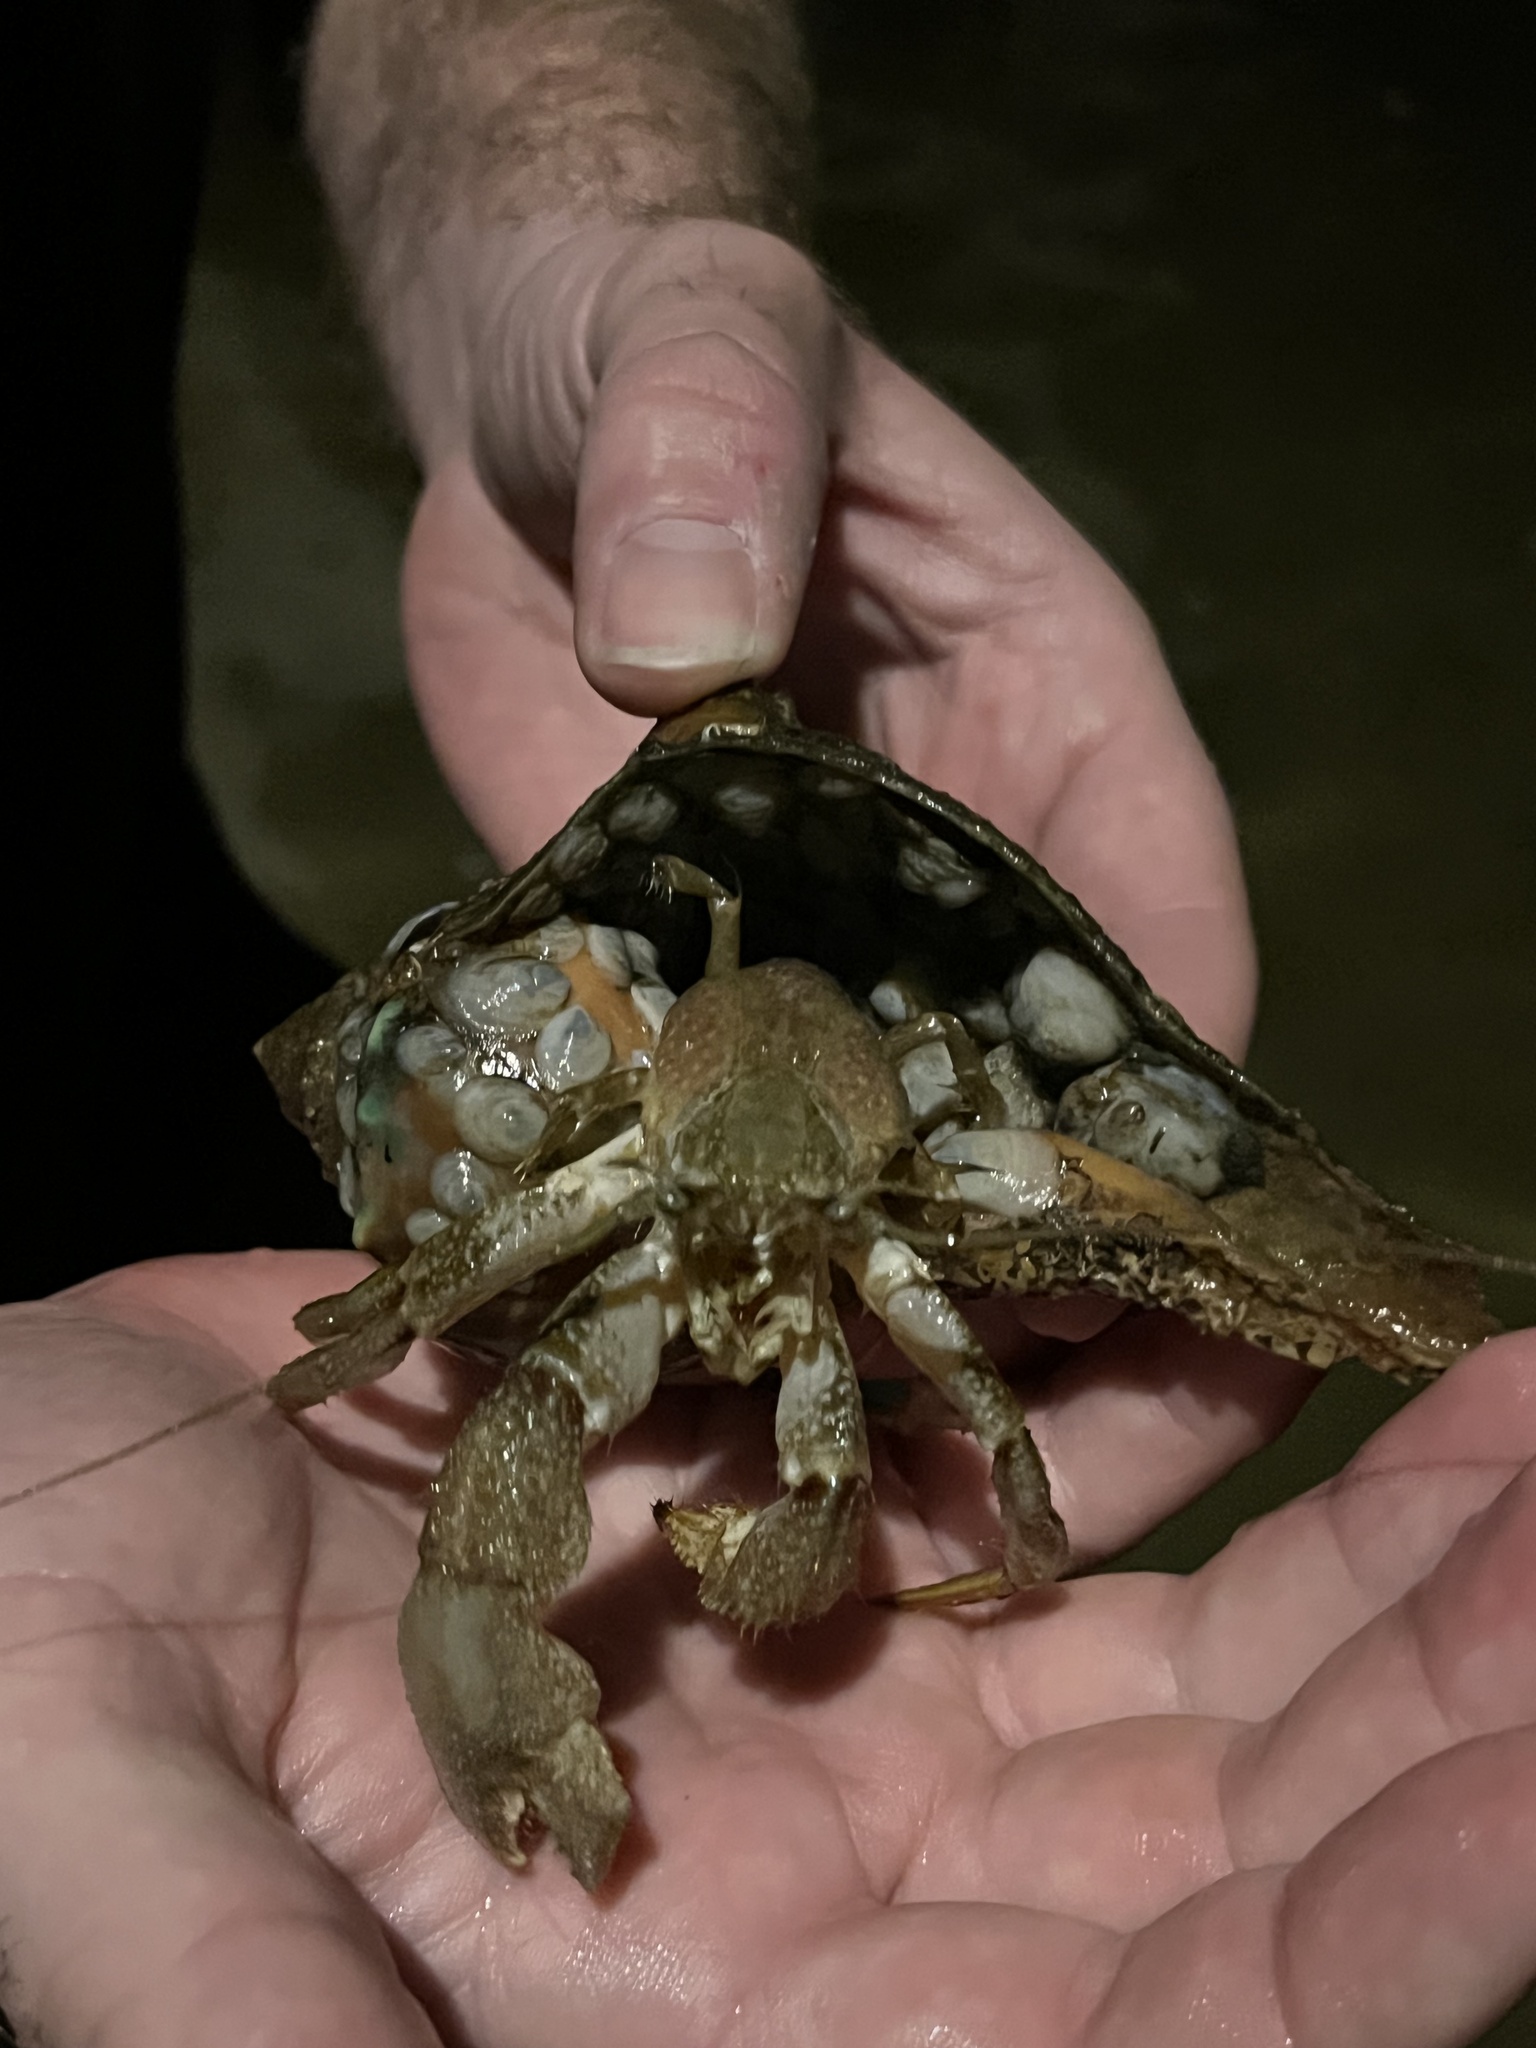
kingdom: Animalia
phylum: Arthropoda
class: Malacostraca
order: Decapoda
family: Paguridae
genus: Pagurus
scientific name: Pagurus pollicaris
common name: Flatclaw hermit
